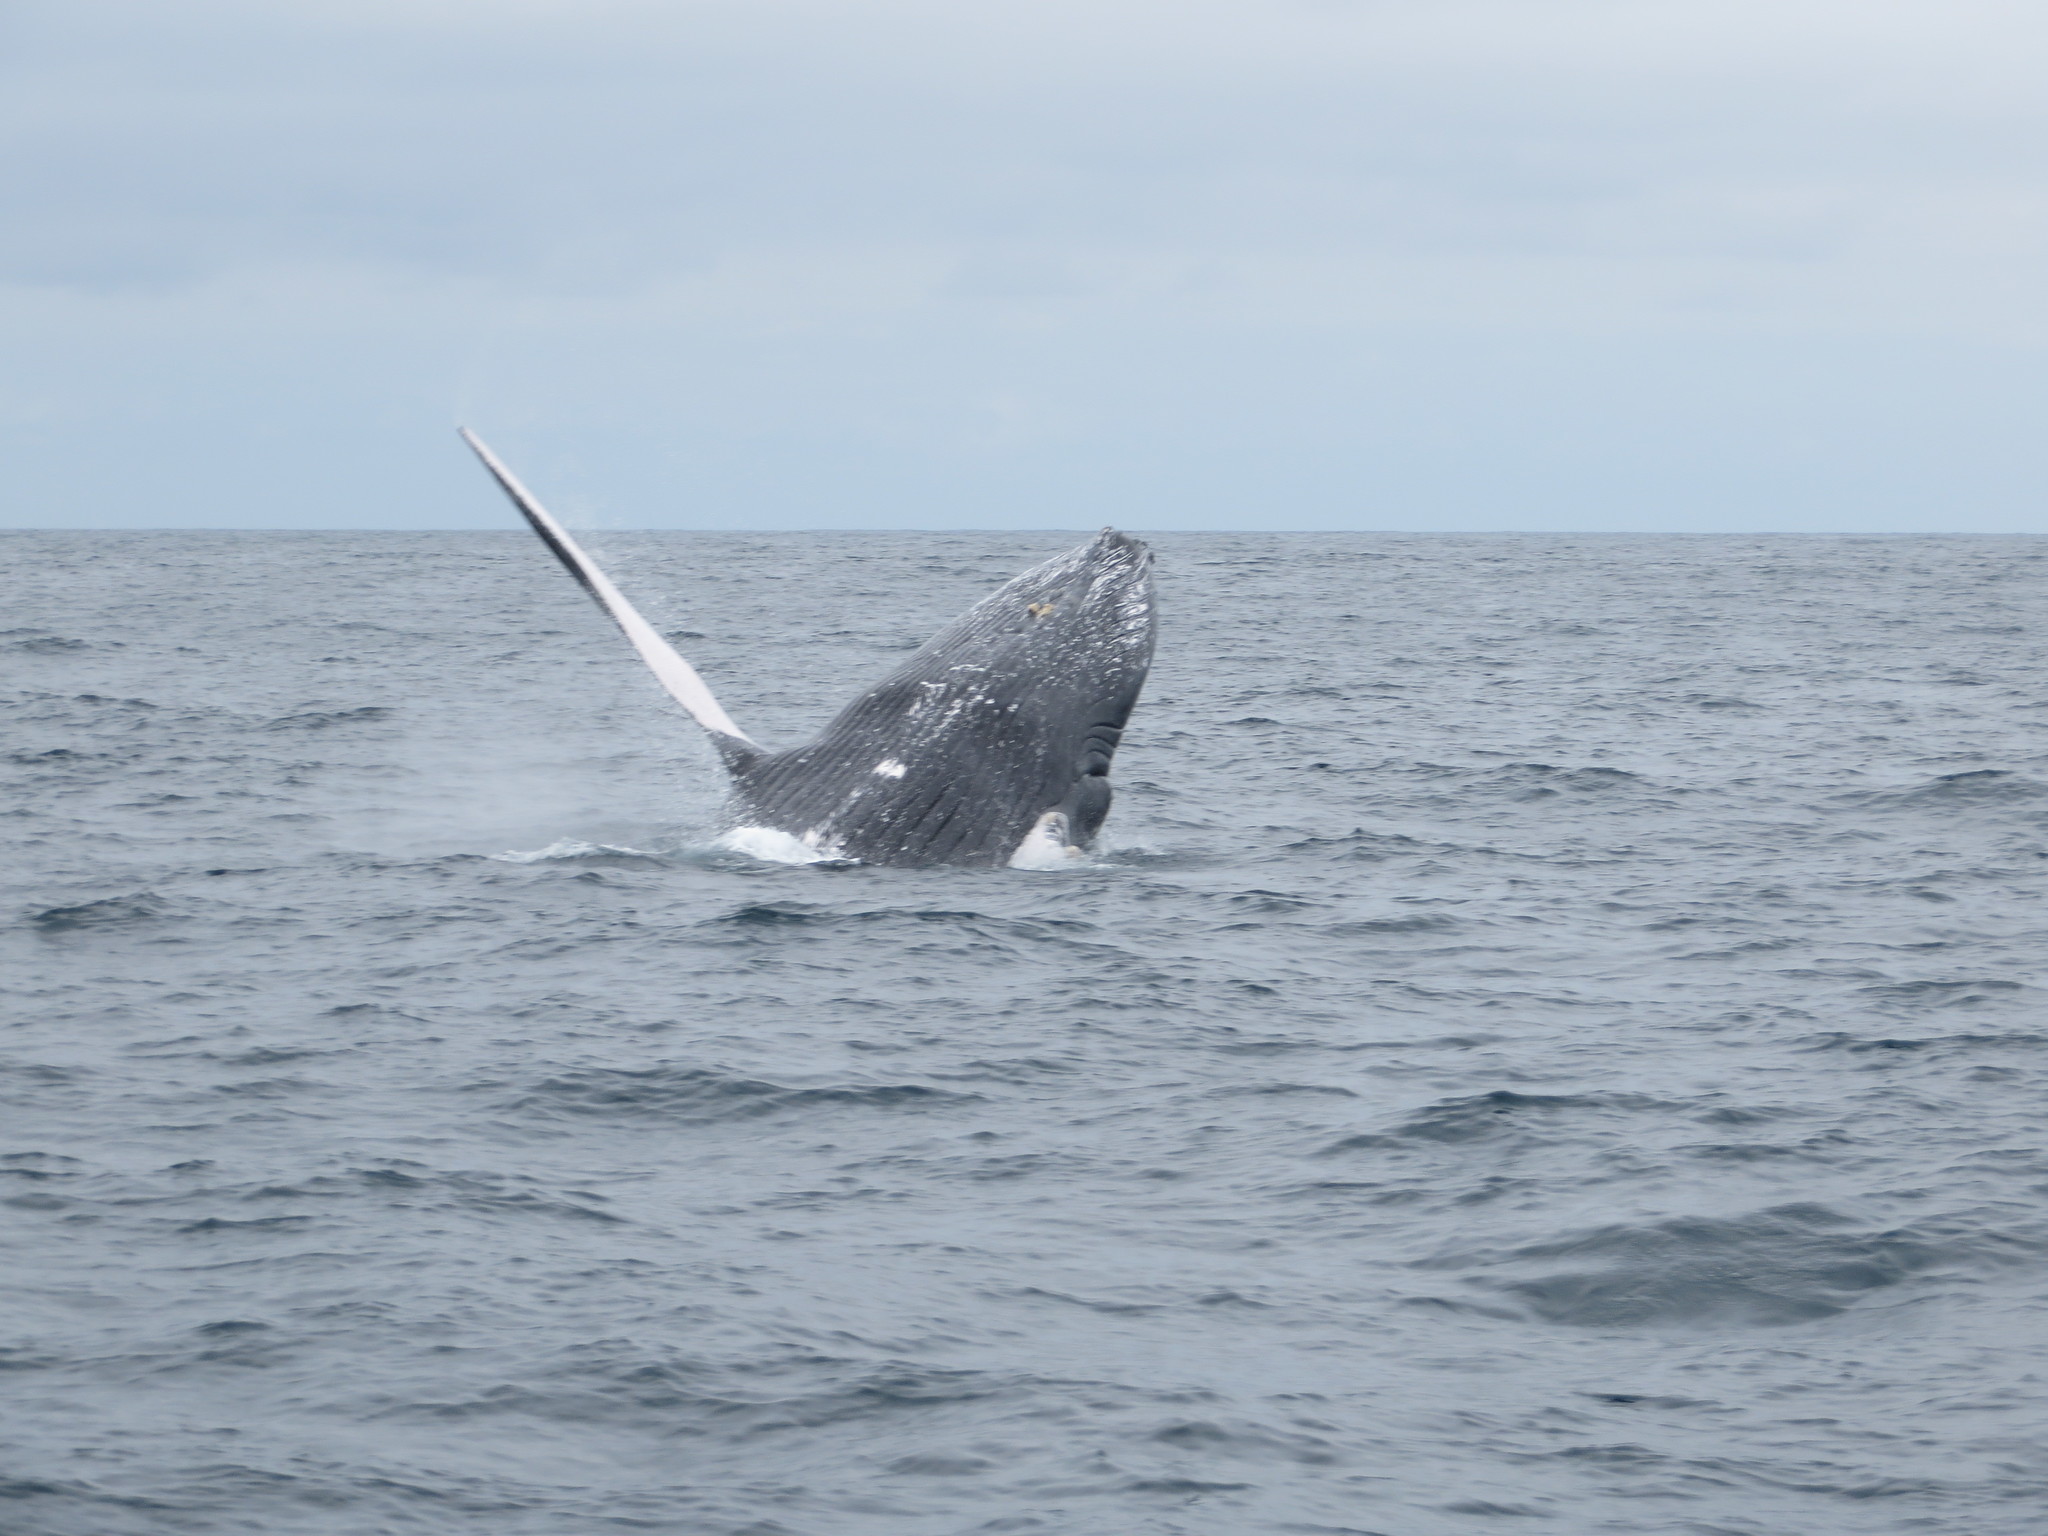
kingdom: Animalia
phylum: Chordata
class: Mammalia
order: Cetacea
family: Balaenopteridae
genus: Megaptera
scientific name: Megaptera novaeangliae
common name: Humpback whale
